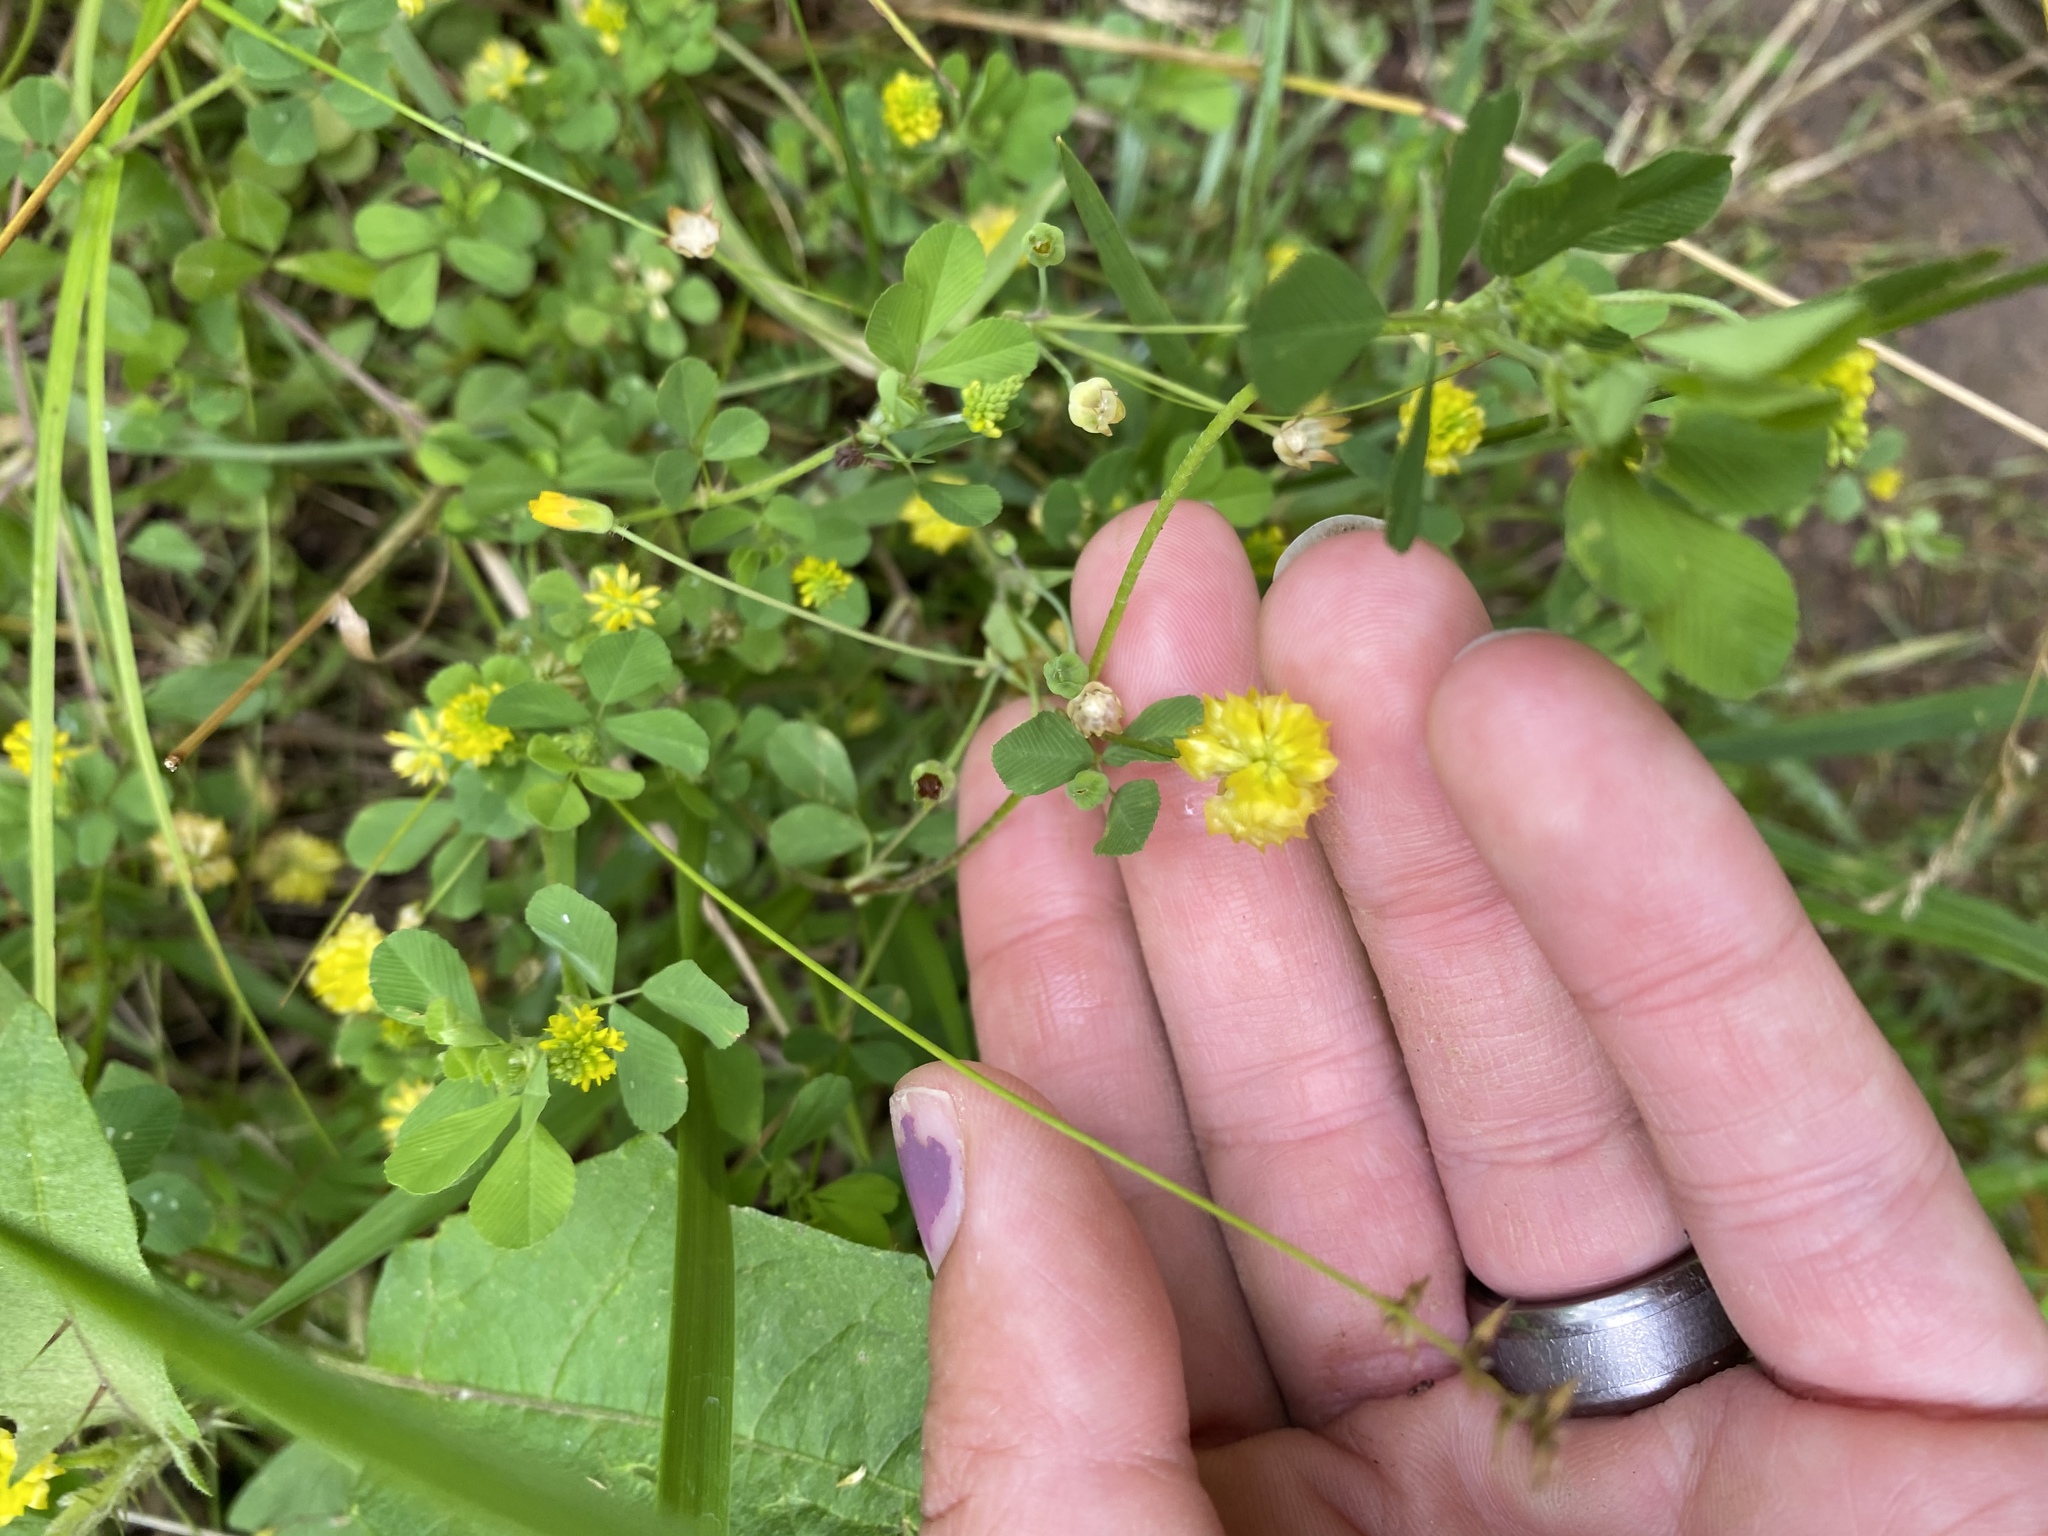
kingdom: Plantae
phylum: Tracheophyta
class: Magnoliopsida
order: Fabales
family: Fabaceae
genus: Trifolium
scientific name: Trifolium campestre
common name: Field clover
